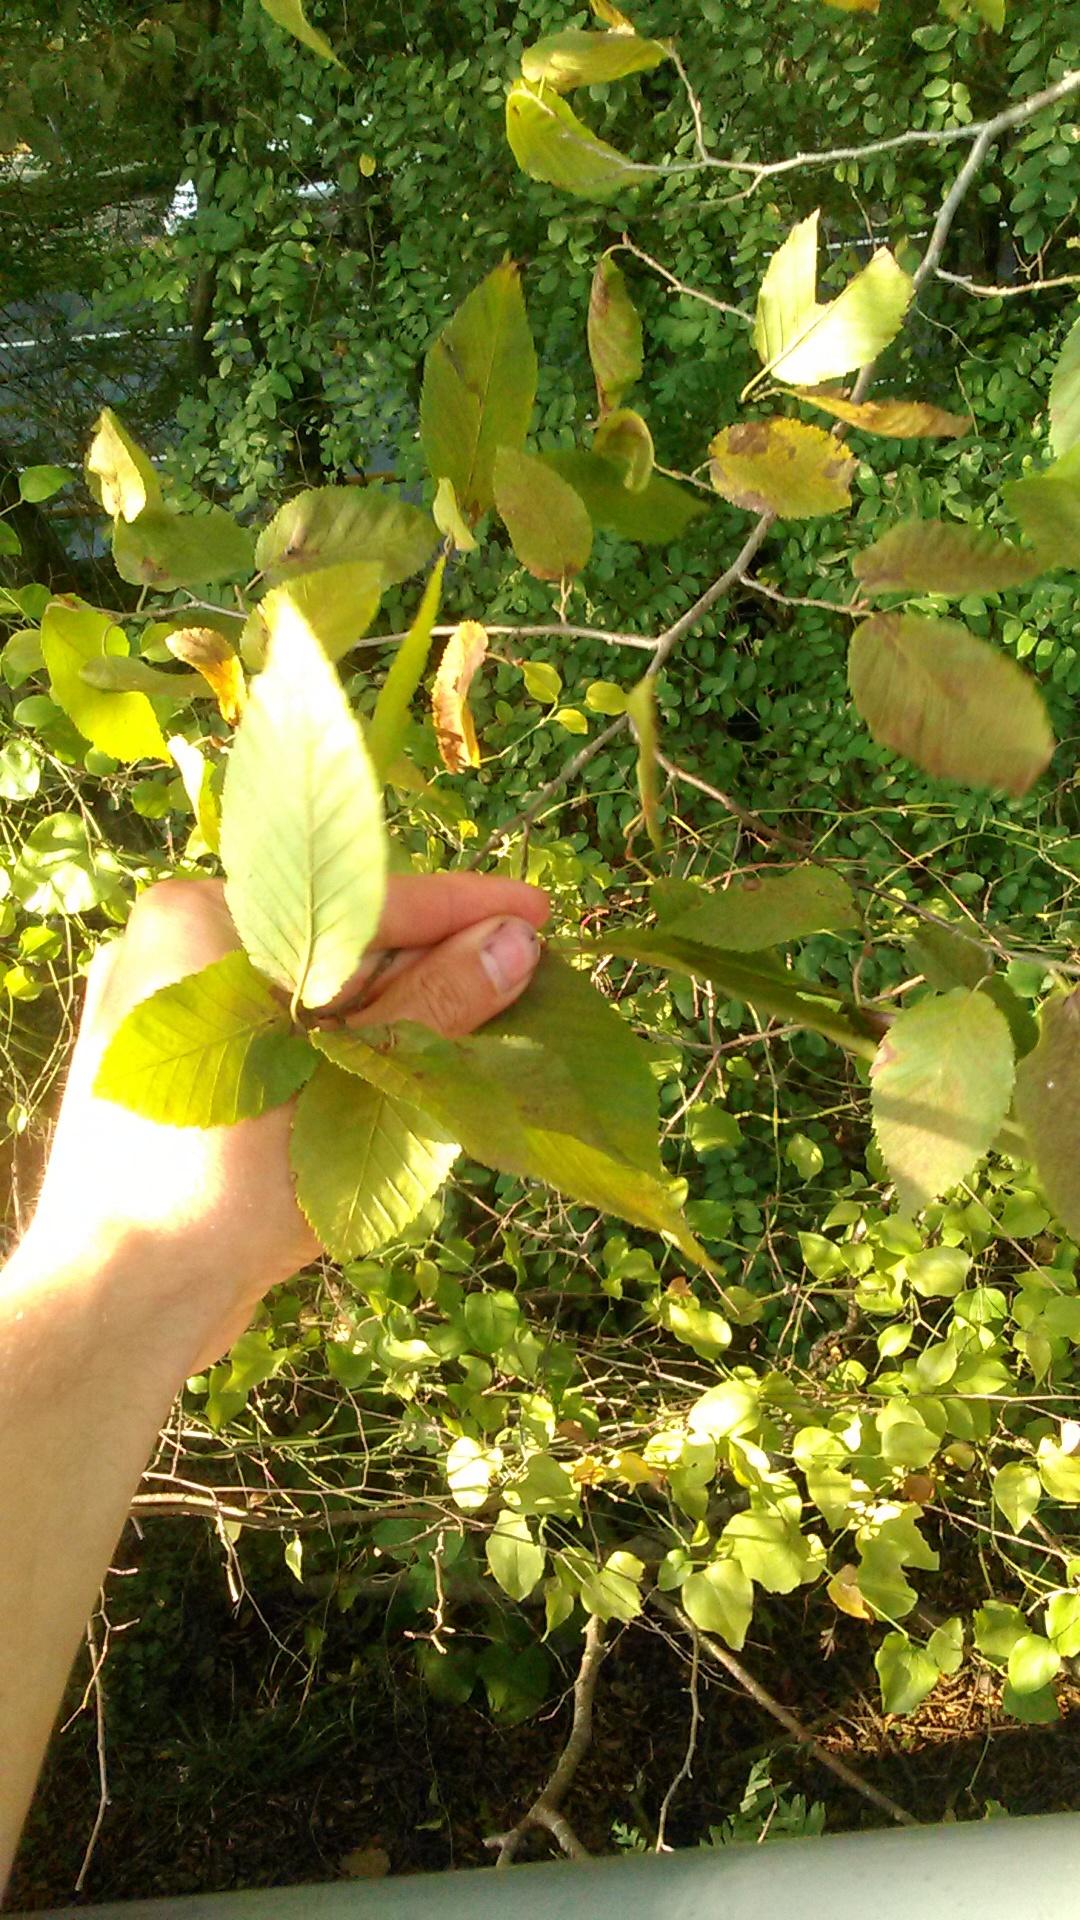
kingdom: Plantae
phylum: Tracheophyta
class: Magnoliopsida
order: Fagales
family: Betulaceae
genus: Carpinus
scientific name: Carpinus betulus
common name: Hornbeam
